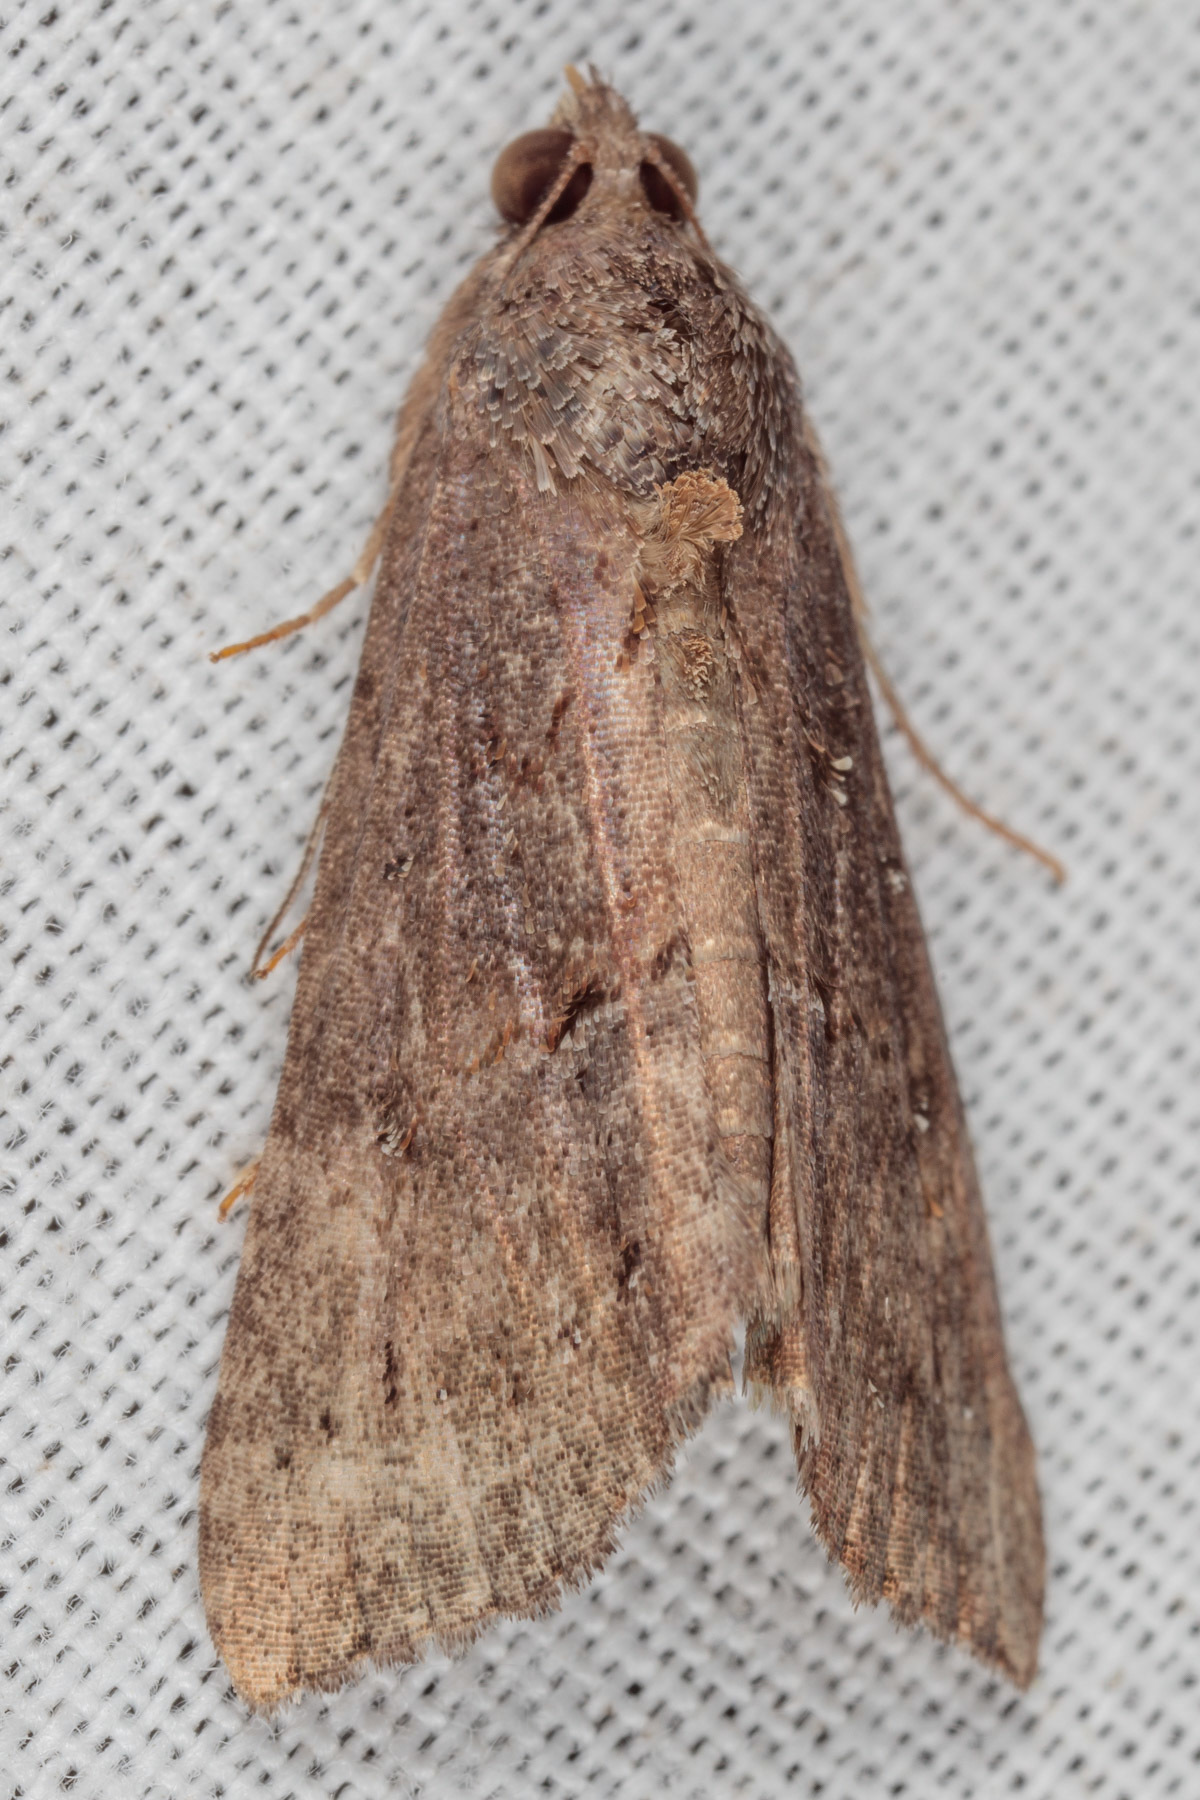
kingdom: Animalia
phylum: Arthropoda
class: Insecta
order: Lepidoptera
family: Erebidae
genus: Hypena
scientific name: Hypena scabra
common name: Green cloverworm
